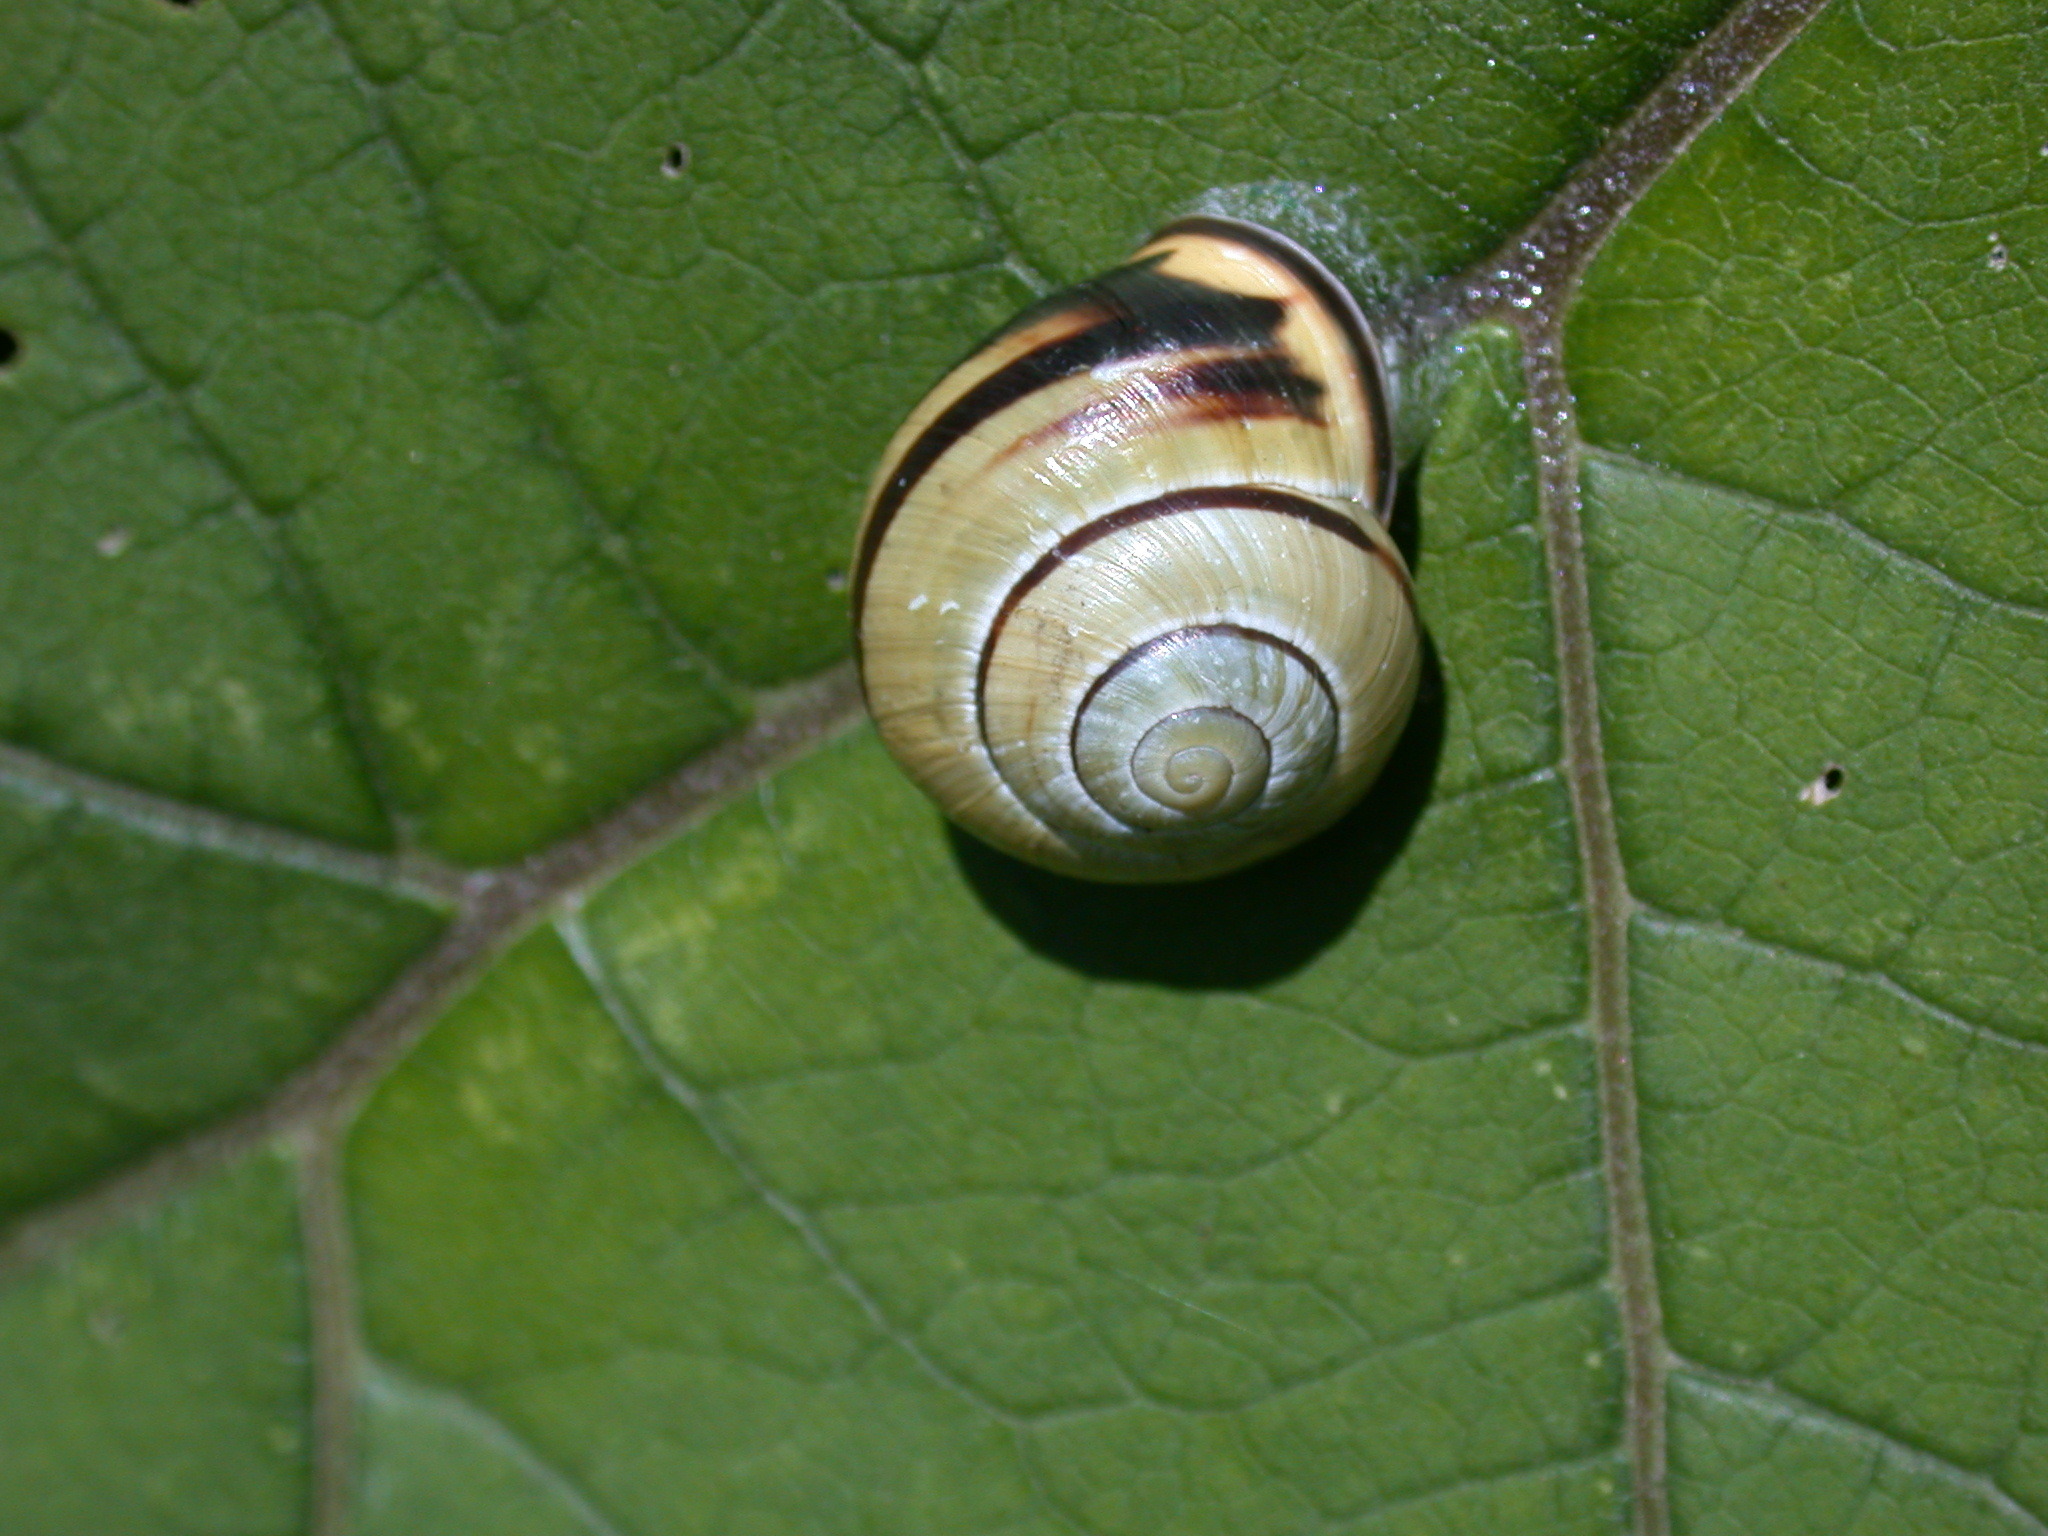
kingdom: Animalia
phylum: Mollusca
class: Gastropoda
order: Stylommatophora
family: Helicidae
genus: Cepaea
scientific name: Cepaea nemoralis
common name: Grovesnail
